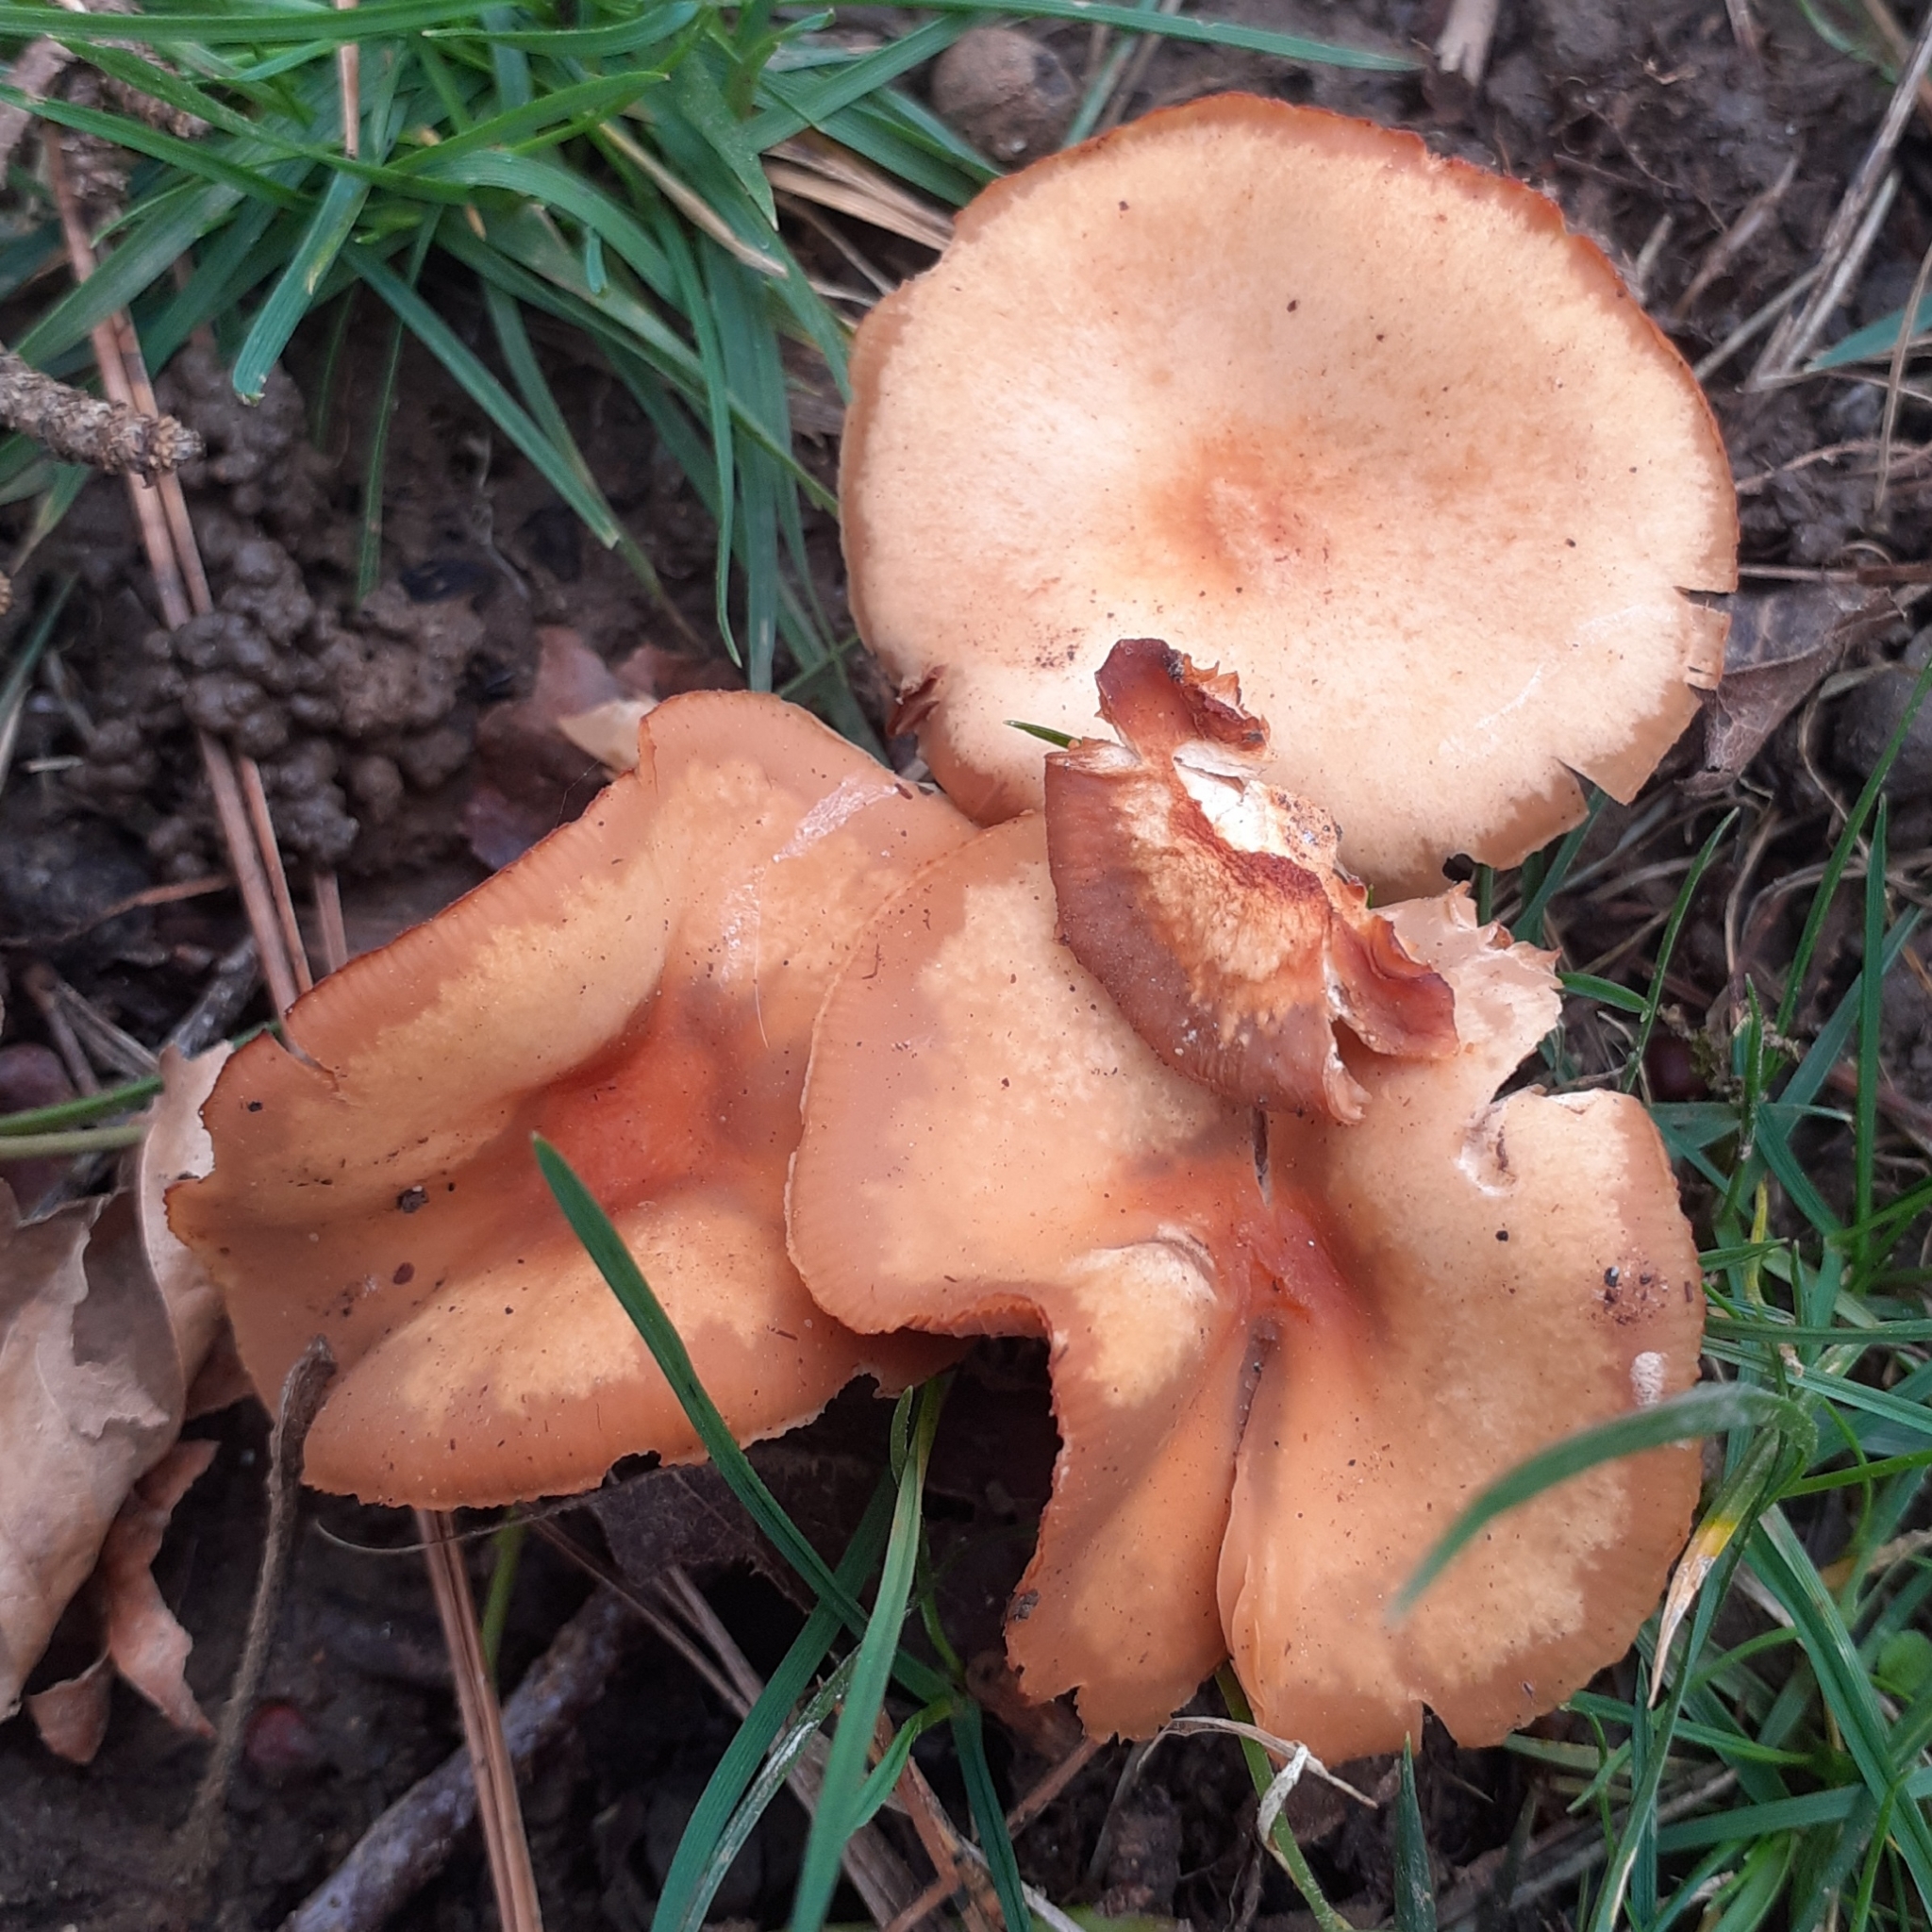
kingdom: Fungi
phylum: Basidiomycota
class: Agaricomycetes
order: Agaricales
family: Strophariaceae
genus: Kuehneromyces
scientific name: Kuehneromyces mutabilis
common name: Sheathed woodtuft
